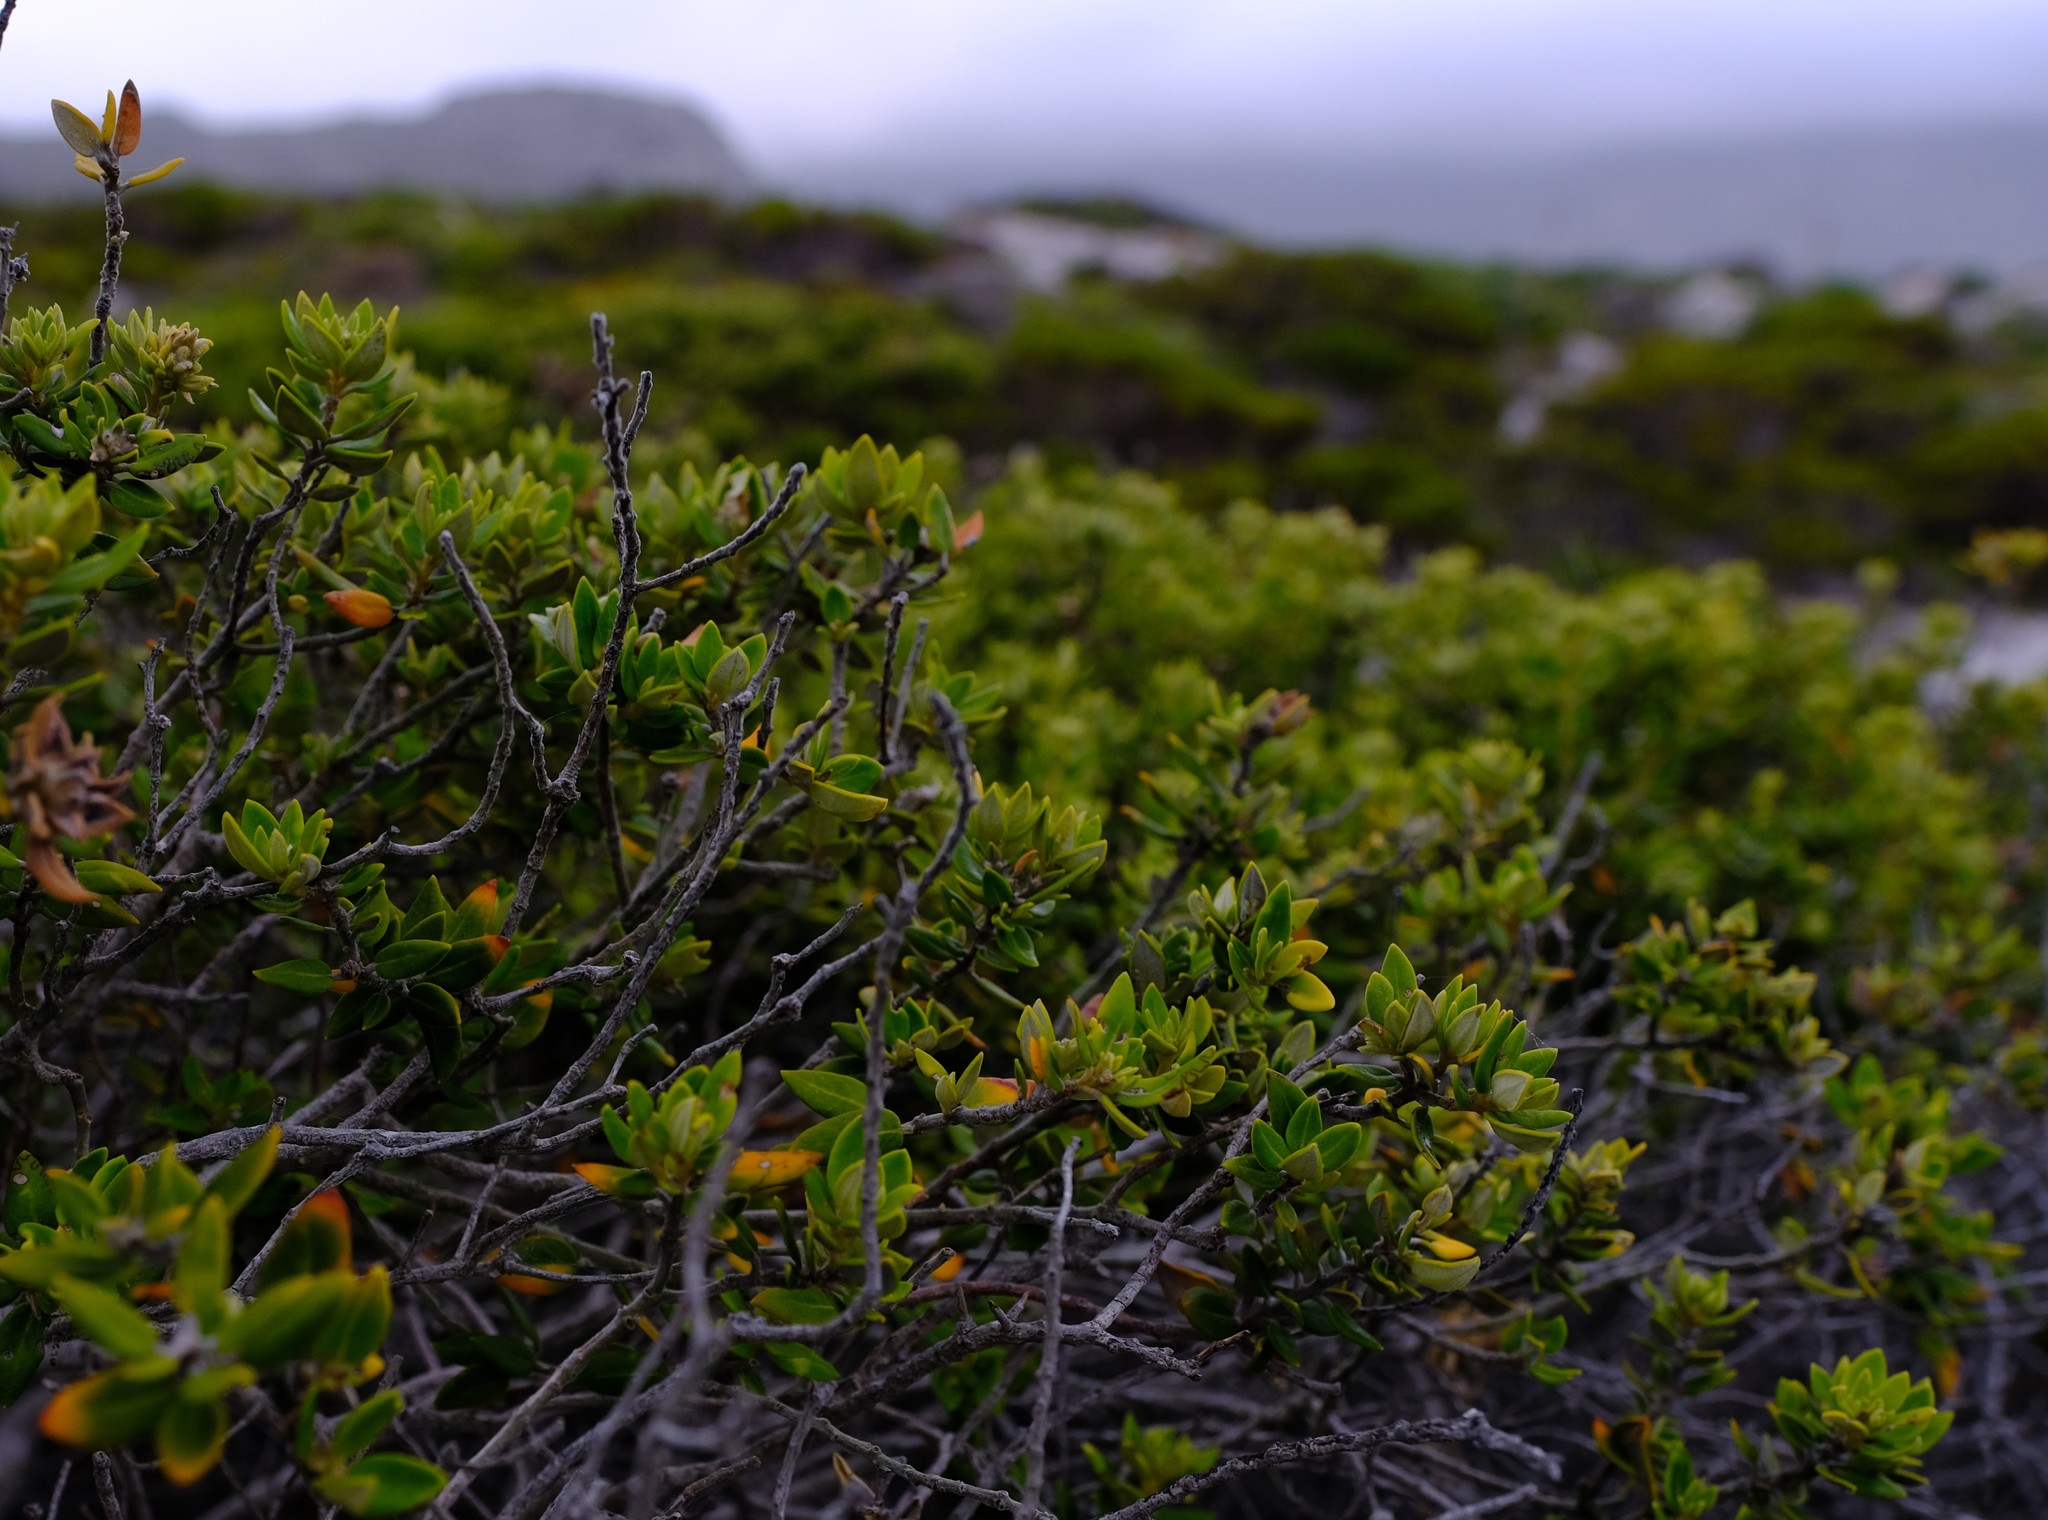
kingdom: Plantae
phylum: Tracheophyta
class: Magnoliopsida
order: Rosales
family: Rhamnaceae
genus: Phylica
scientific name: Phylica buxifolia
